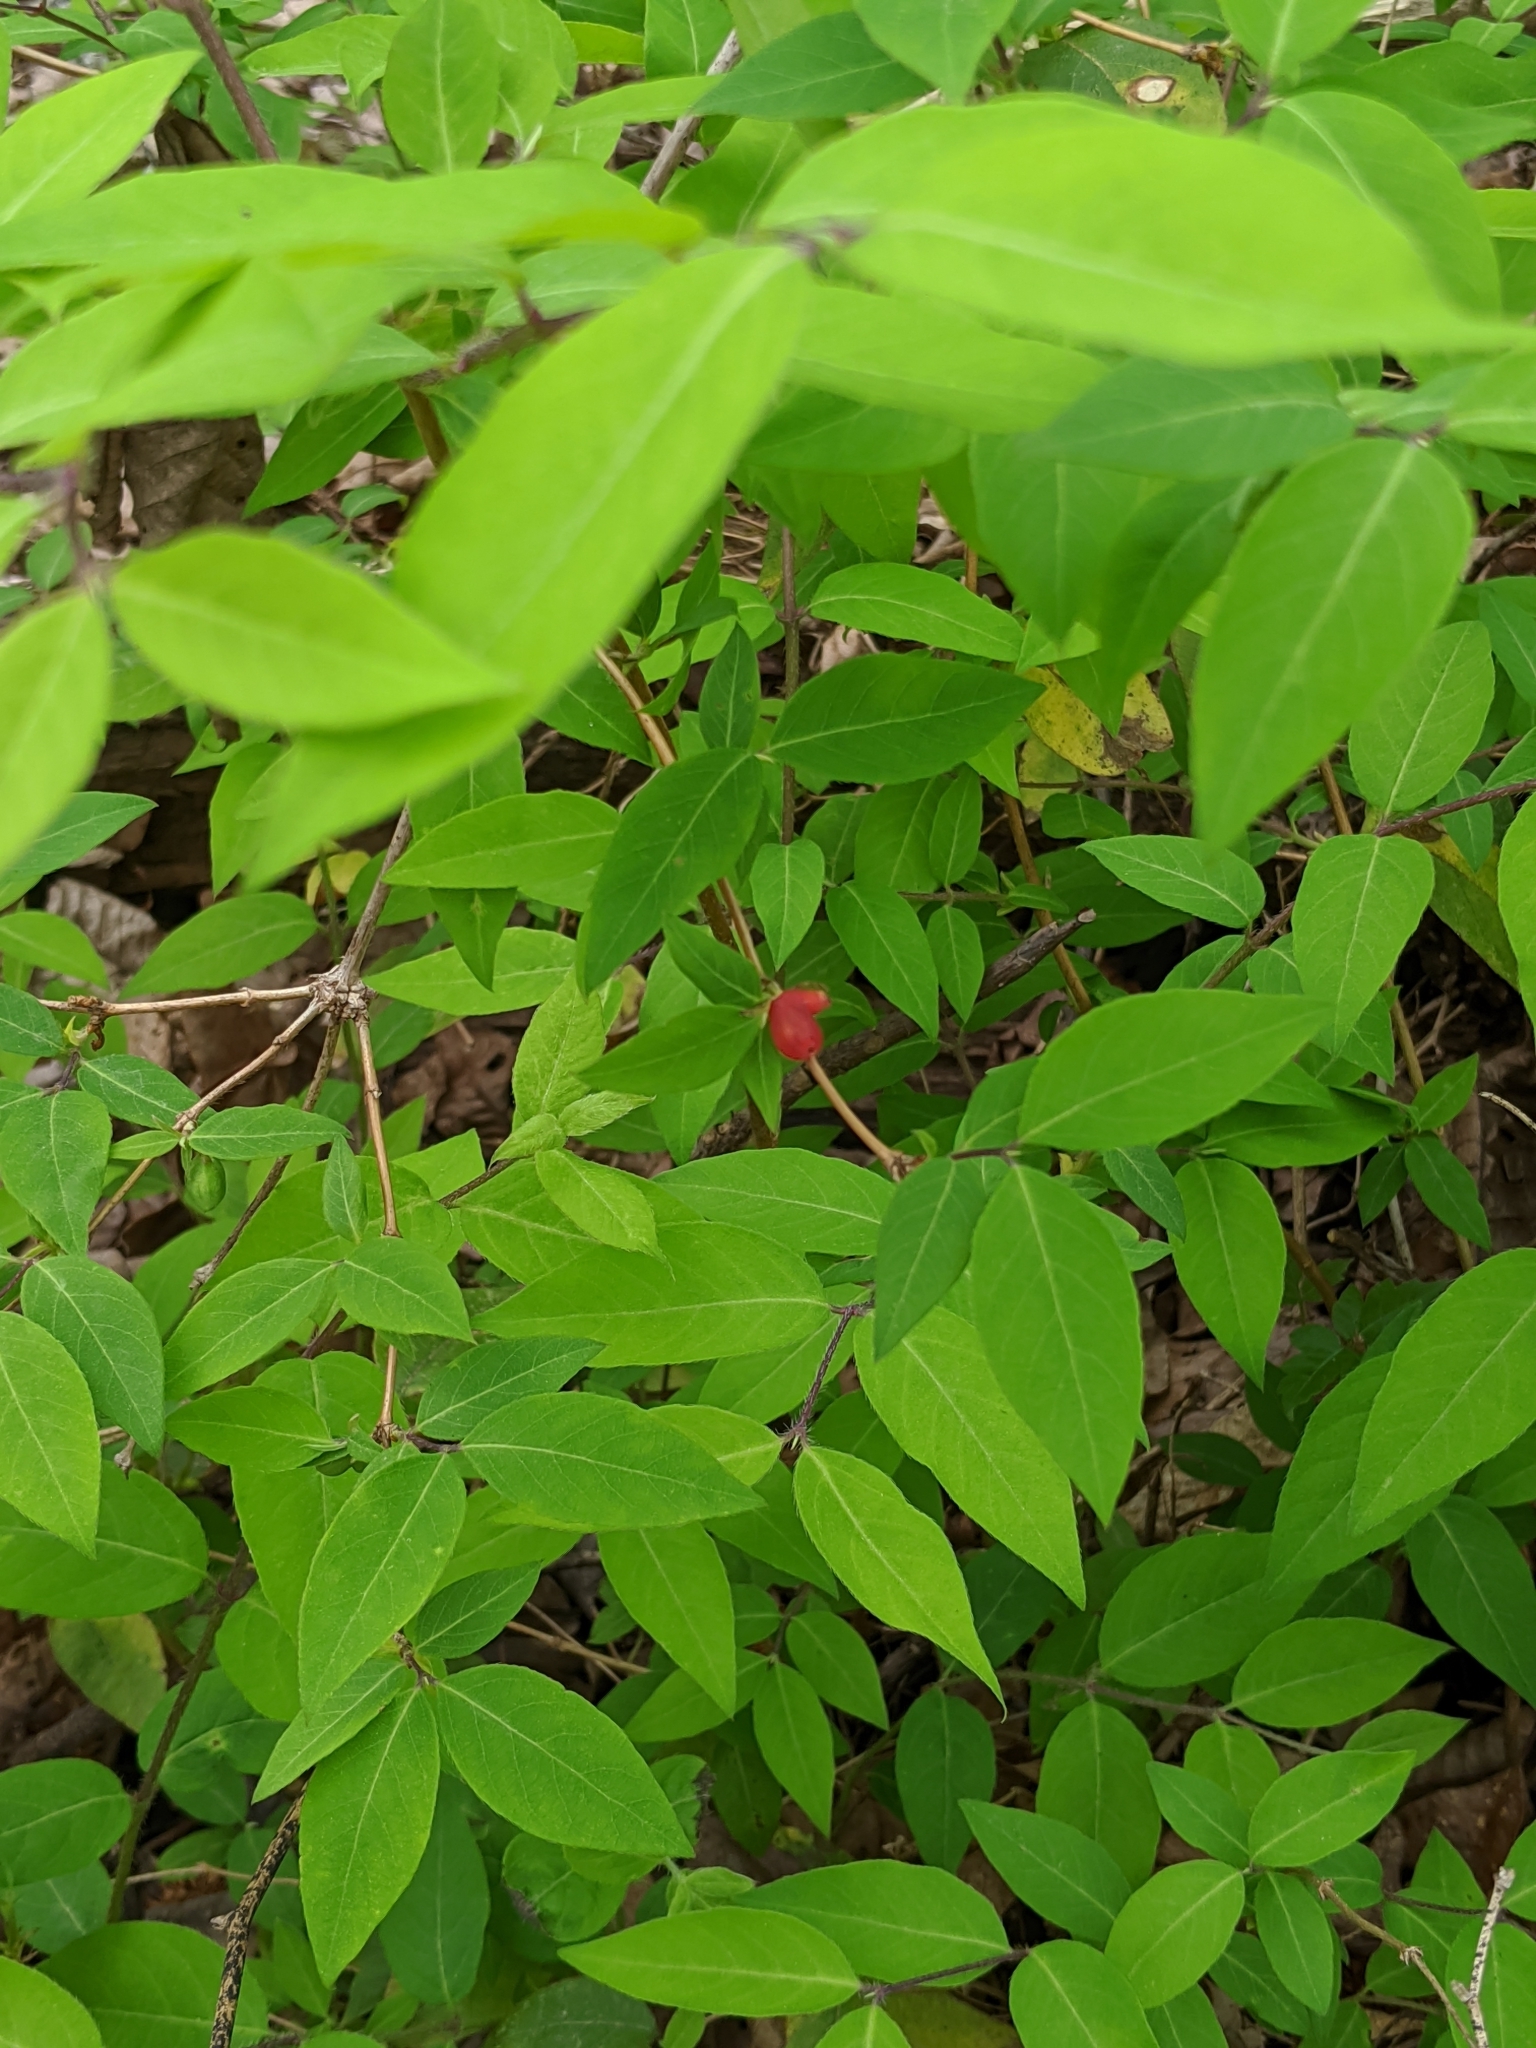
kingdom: Plantae
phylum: Tracheophyta
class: Magnoliopsida
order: Dipsacales
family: Caprifoliaceae
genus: Lonicera
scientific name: Lonicera fragrantissima
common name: Fragrant honeysuckle
